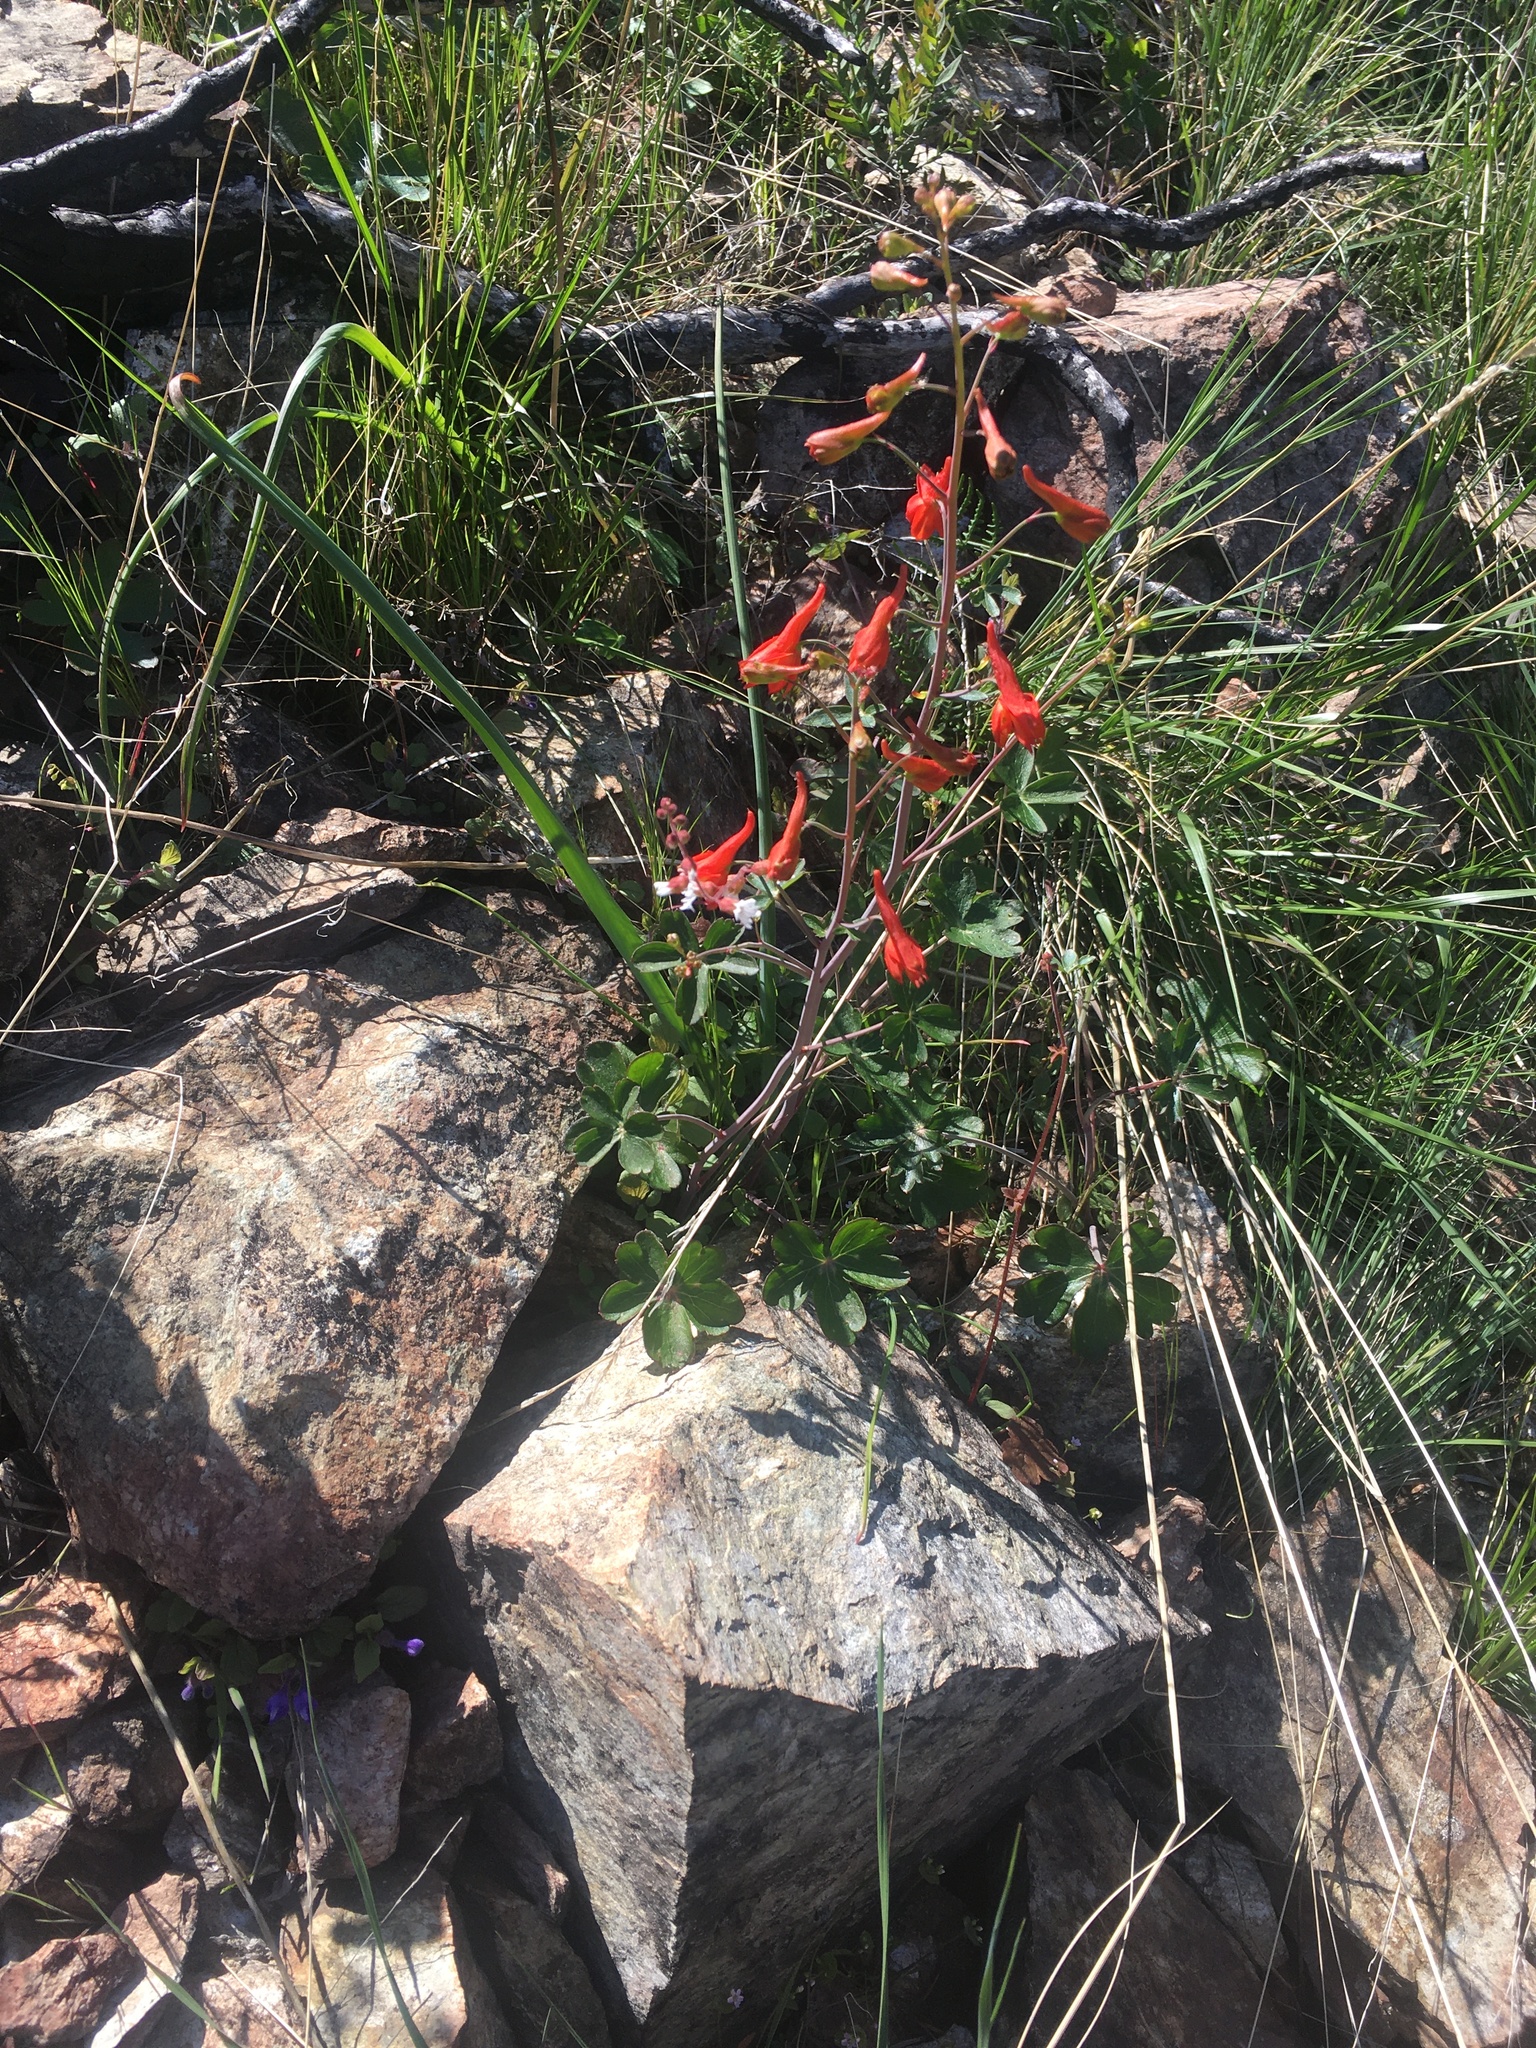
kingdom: Plantae
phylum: Tracheophyta
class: Magnoliopsida
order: Ranunculales
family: Ranunculaceae
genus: Delphinium
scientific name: Delphinium nudicaule
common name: Red larkspur
